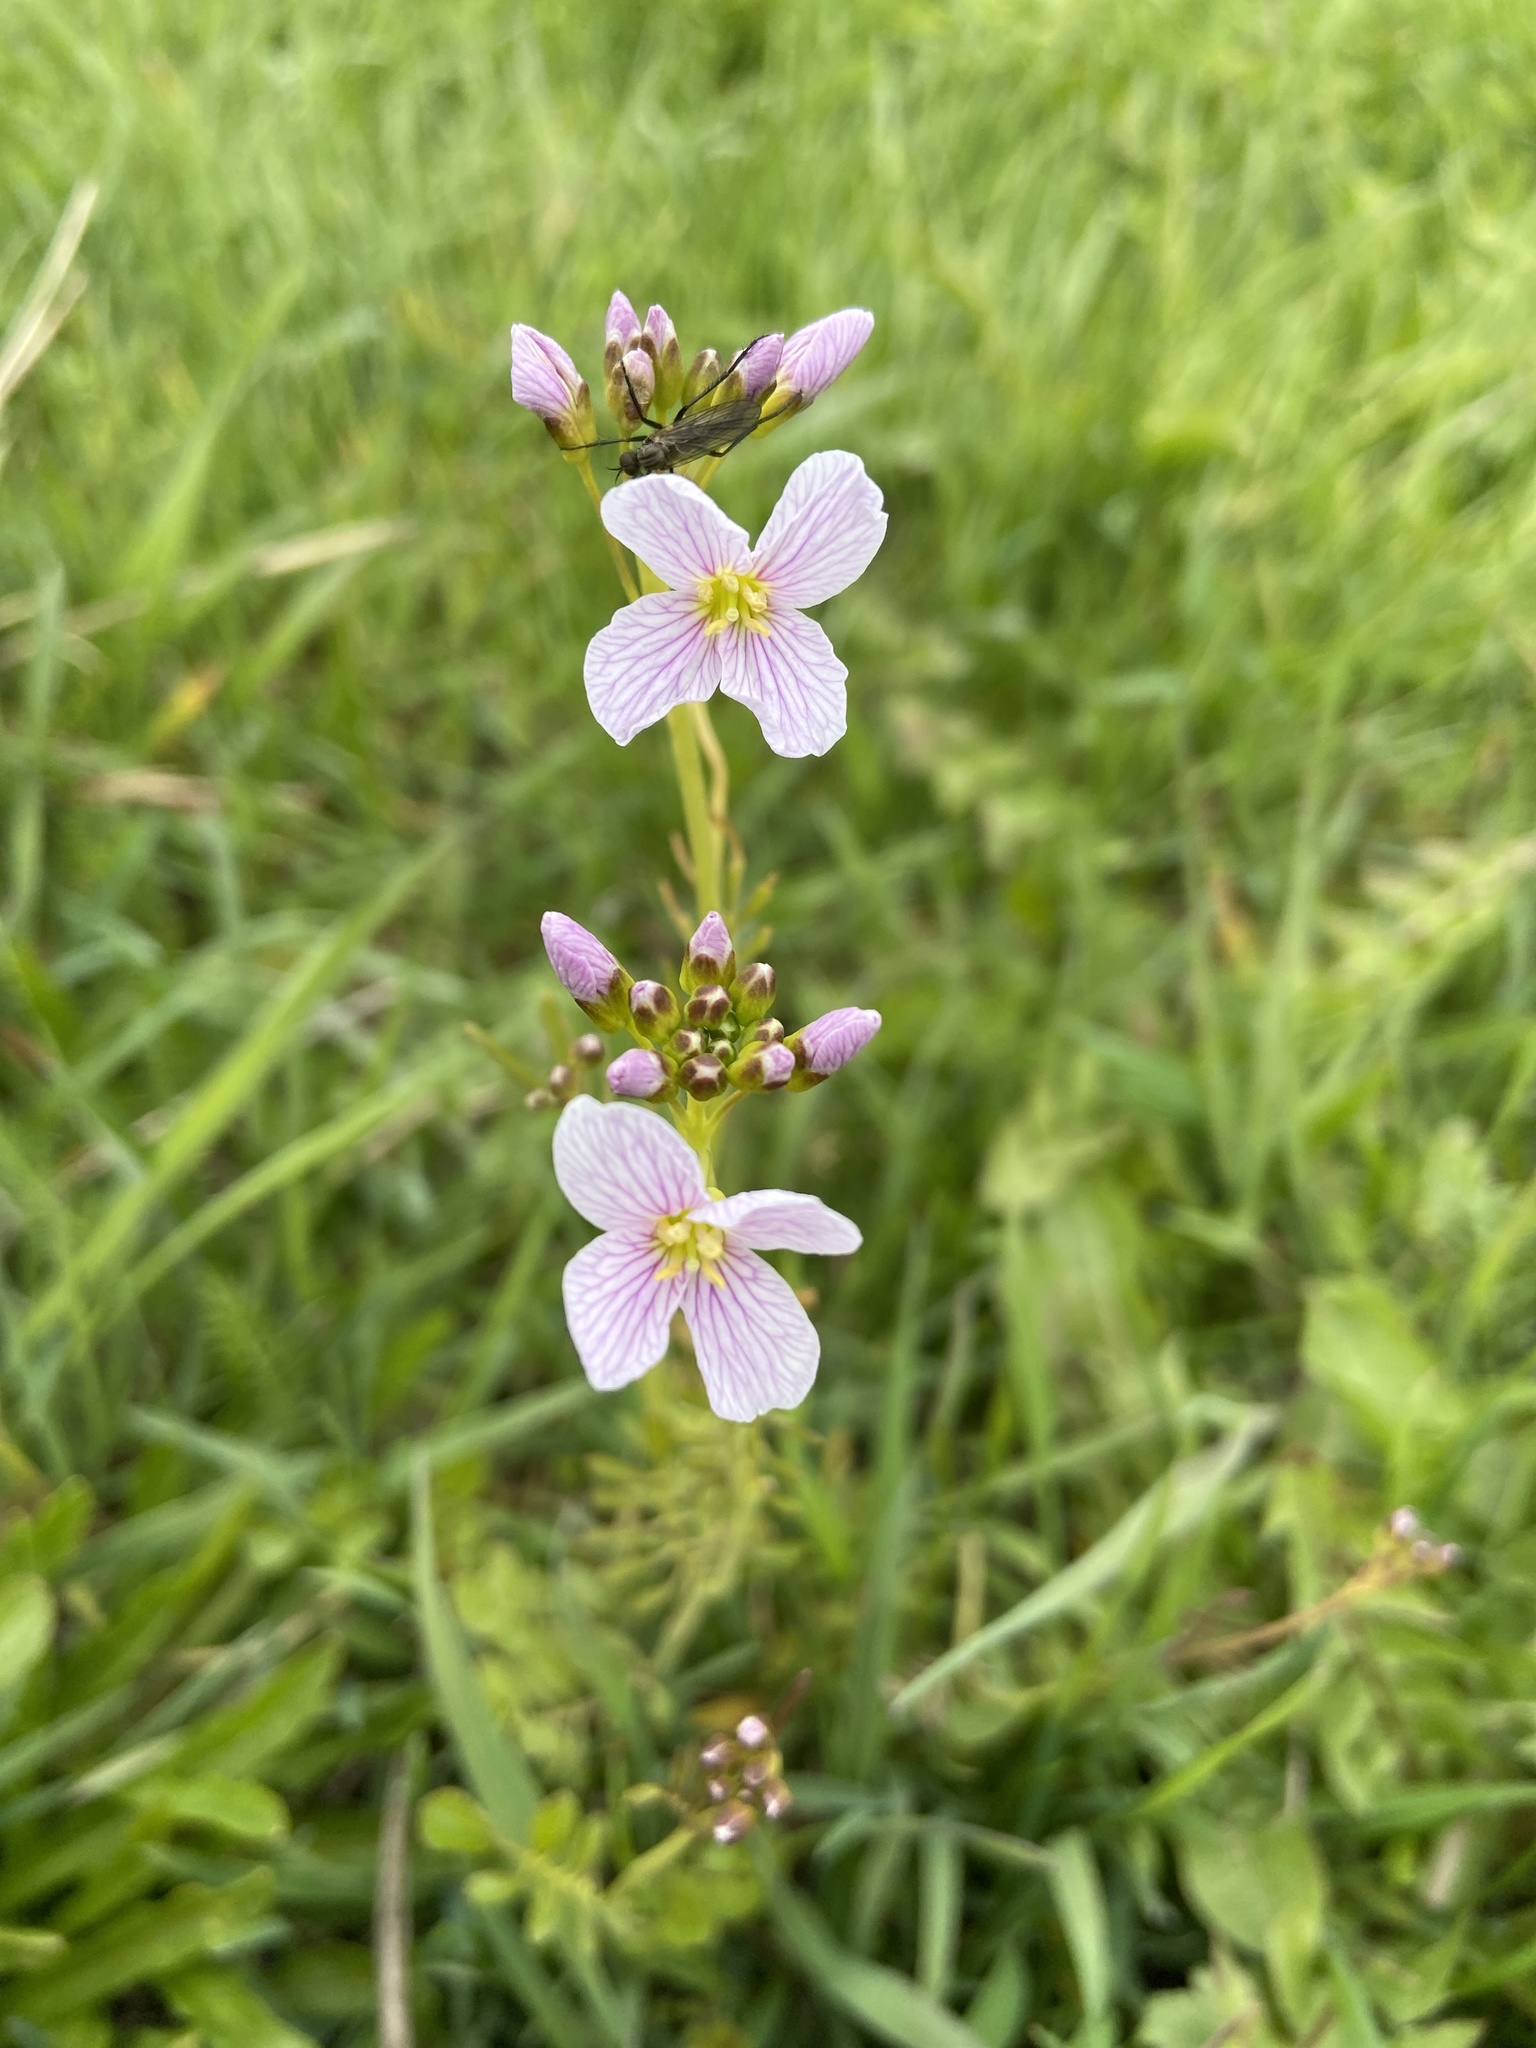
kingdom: Plantae
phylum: Tracheophyta
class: Magnoliopsida
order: Brassicales
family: Brassicaceae
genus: Cardamine
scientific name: Cardamine pratensis
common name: Cuckoo flower
